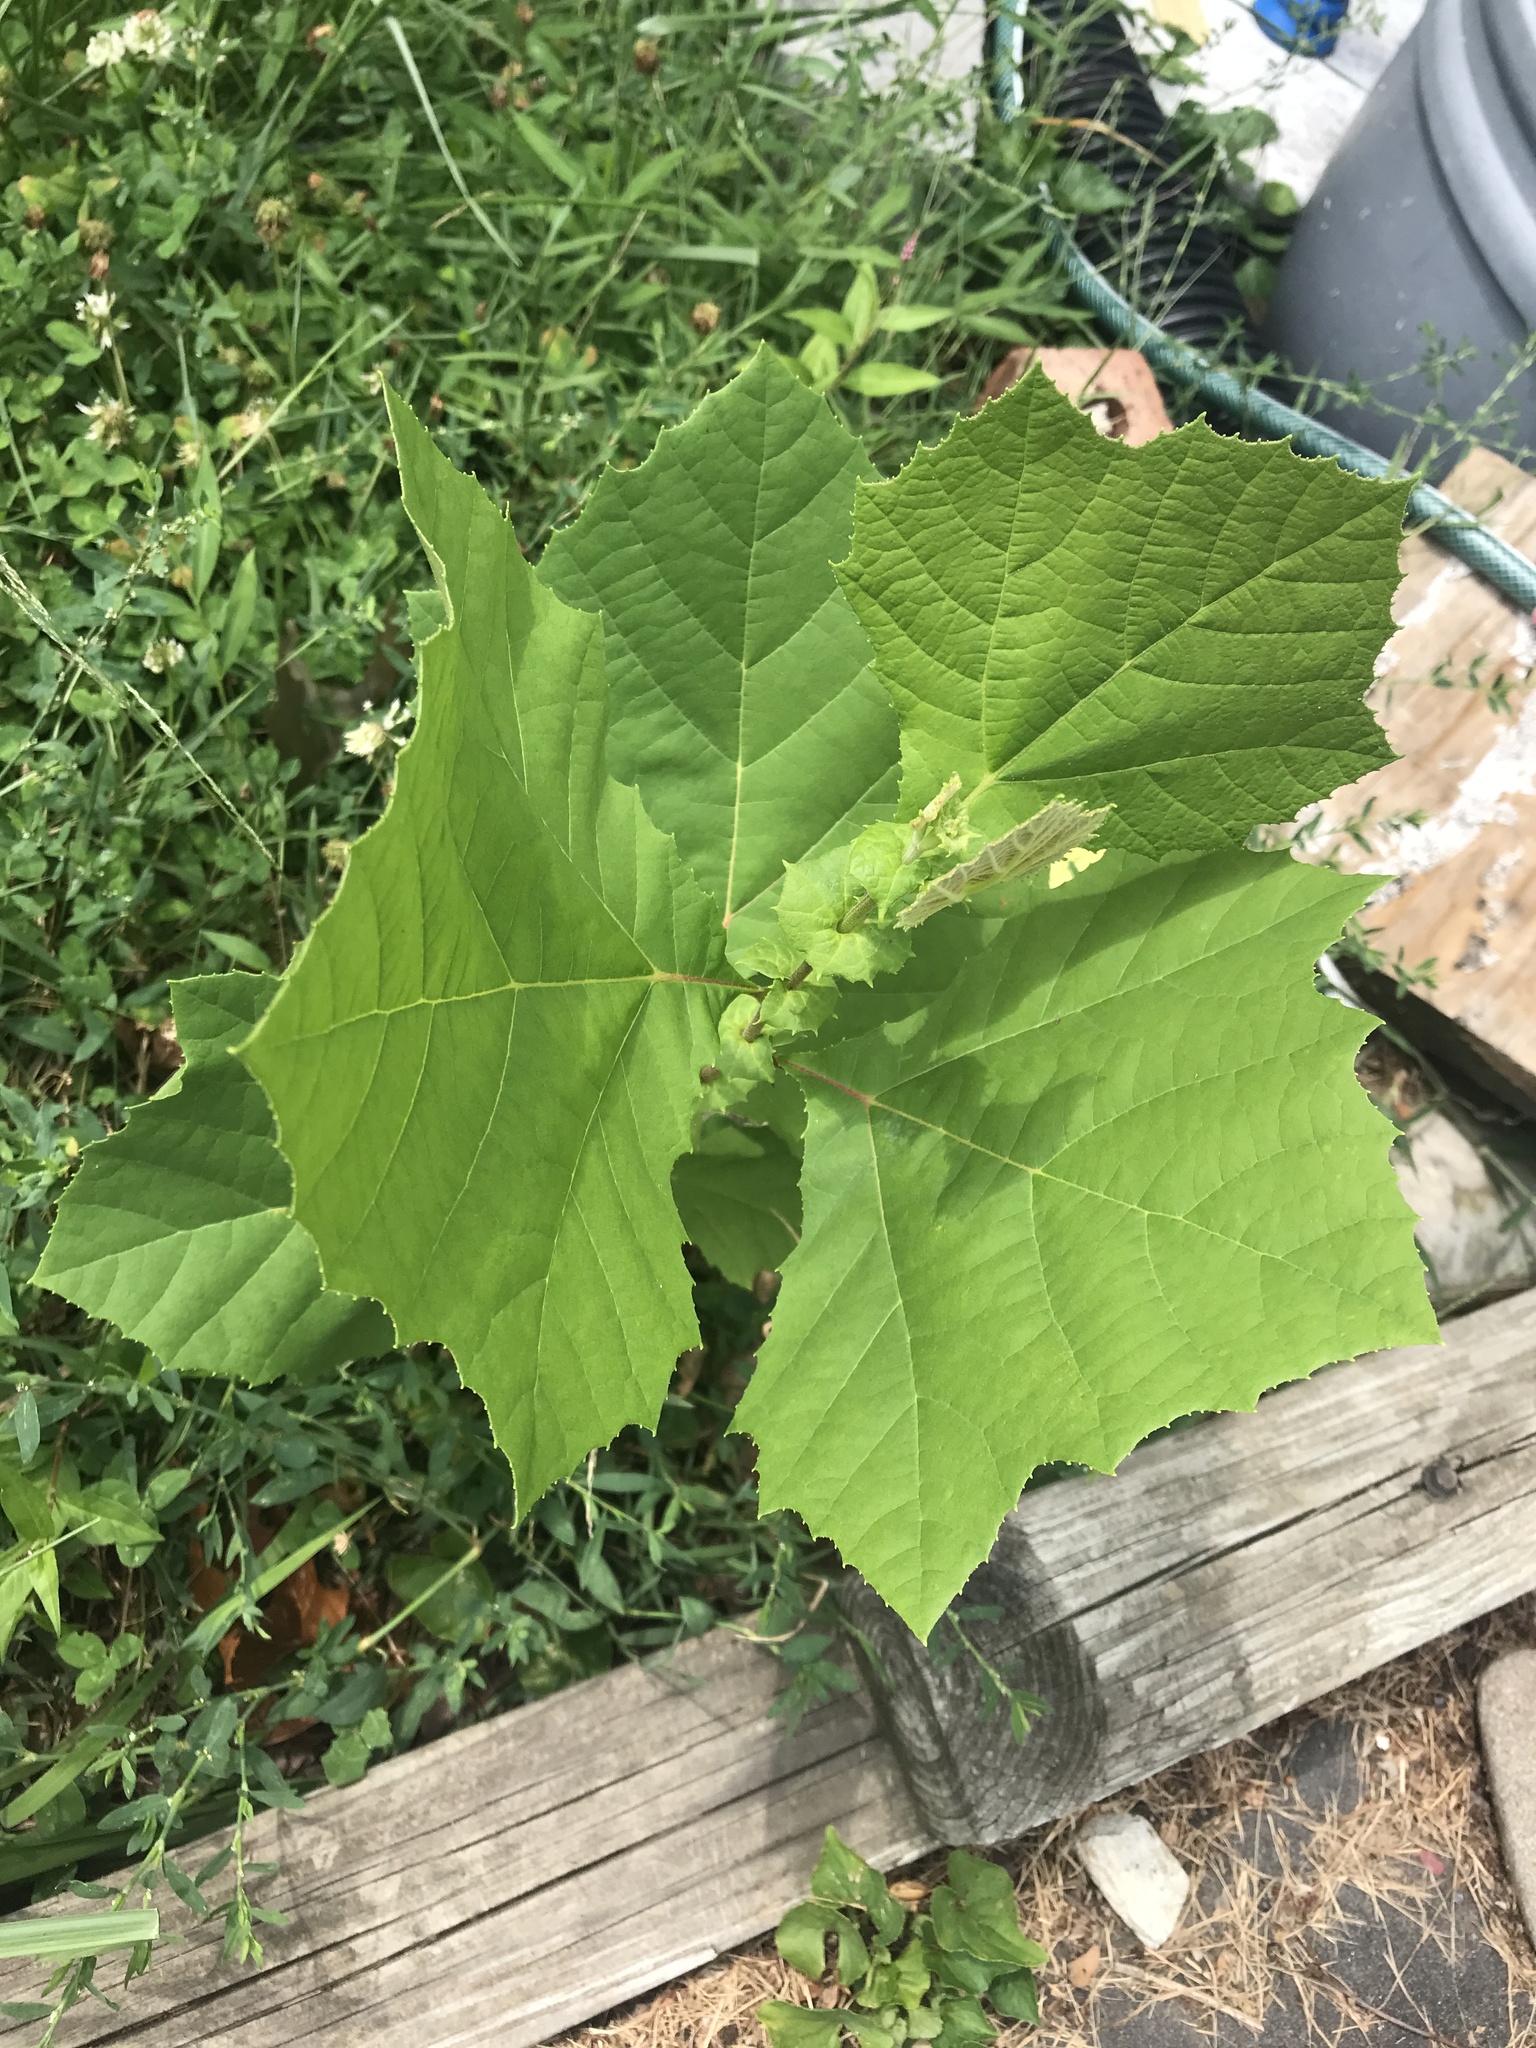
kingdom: Plantae
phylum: Tracheophyta
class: Magnoliopsida
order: Proteales
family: Platanaceae
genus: Platanus
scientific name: Platanus occidentalis
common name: American sycamore
